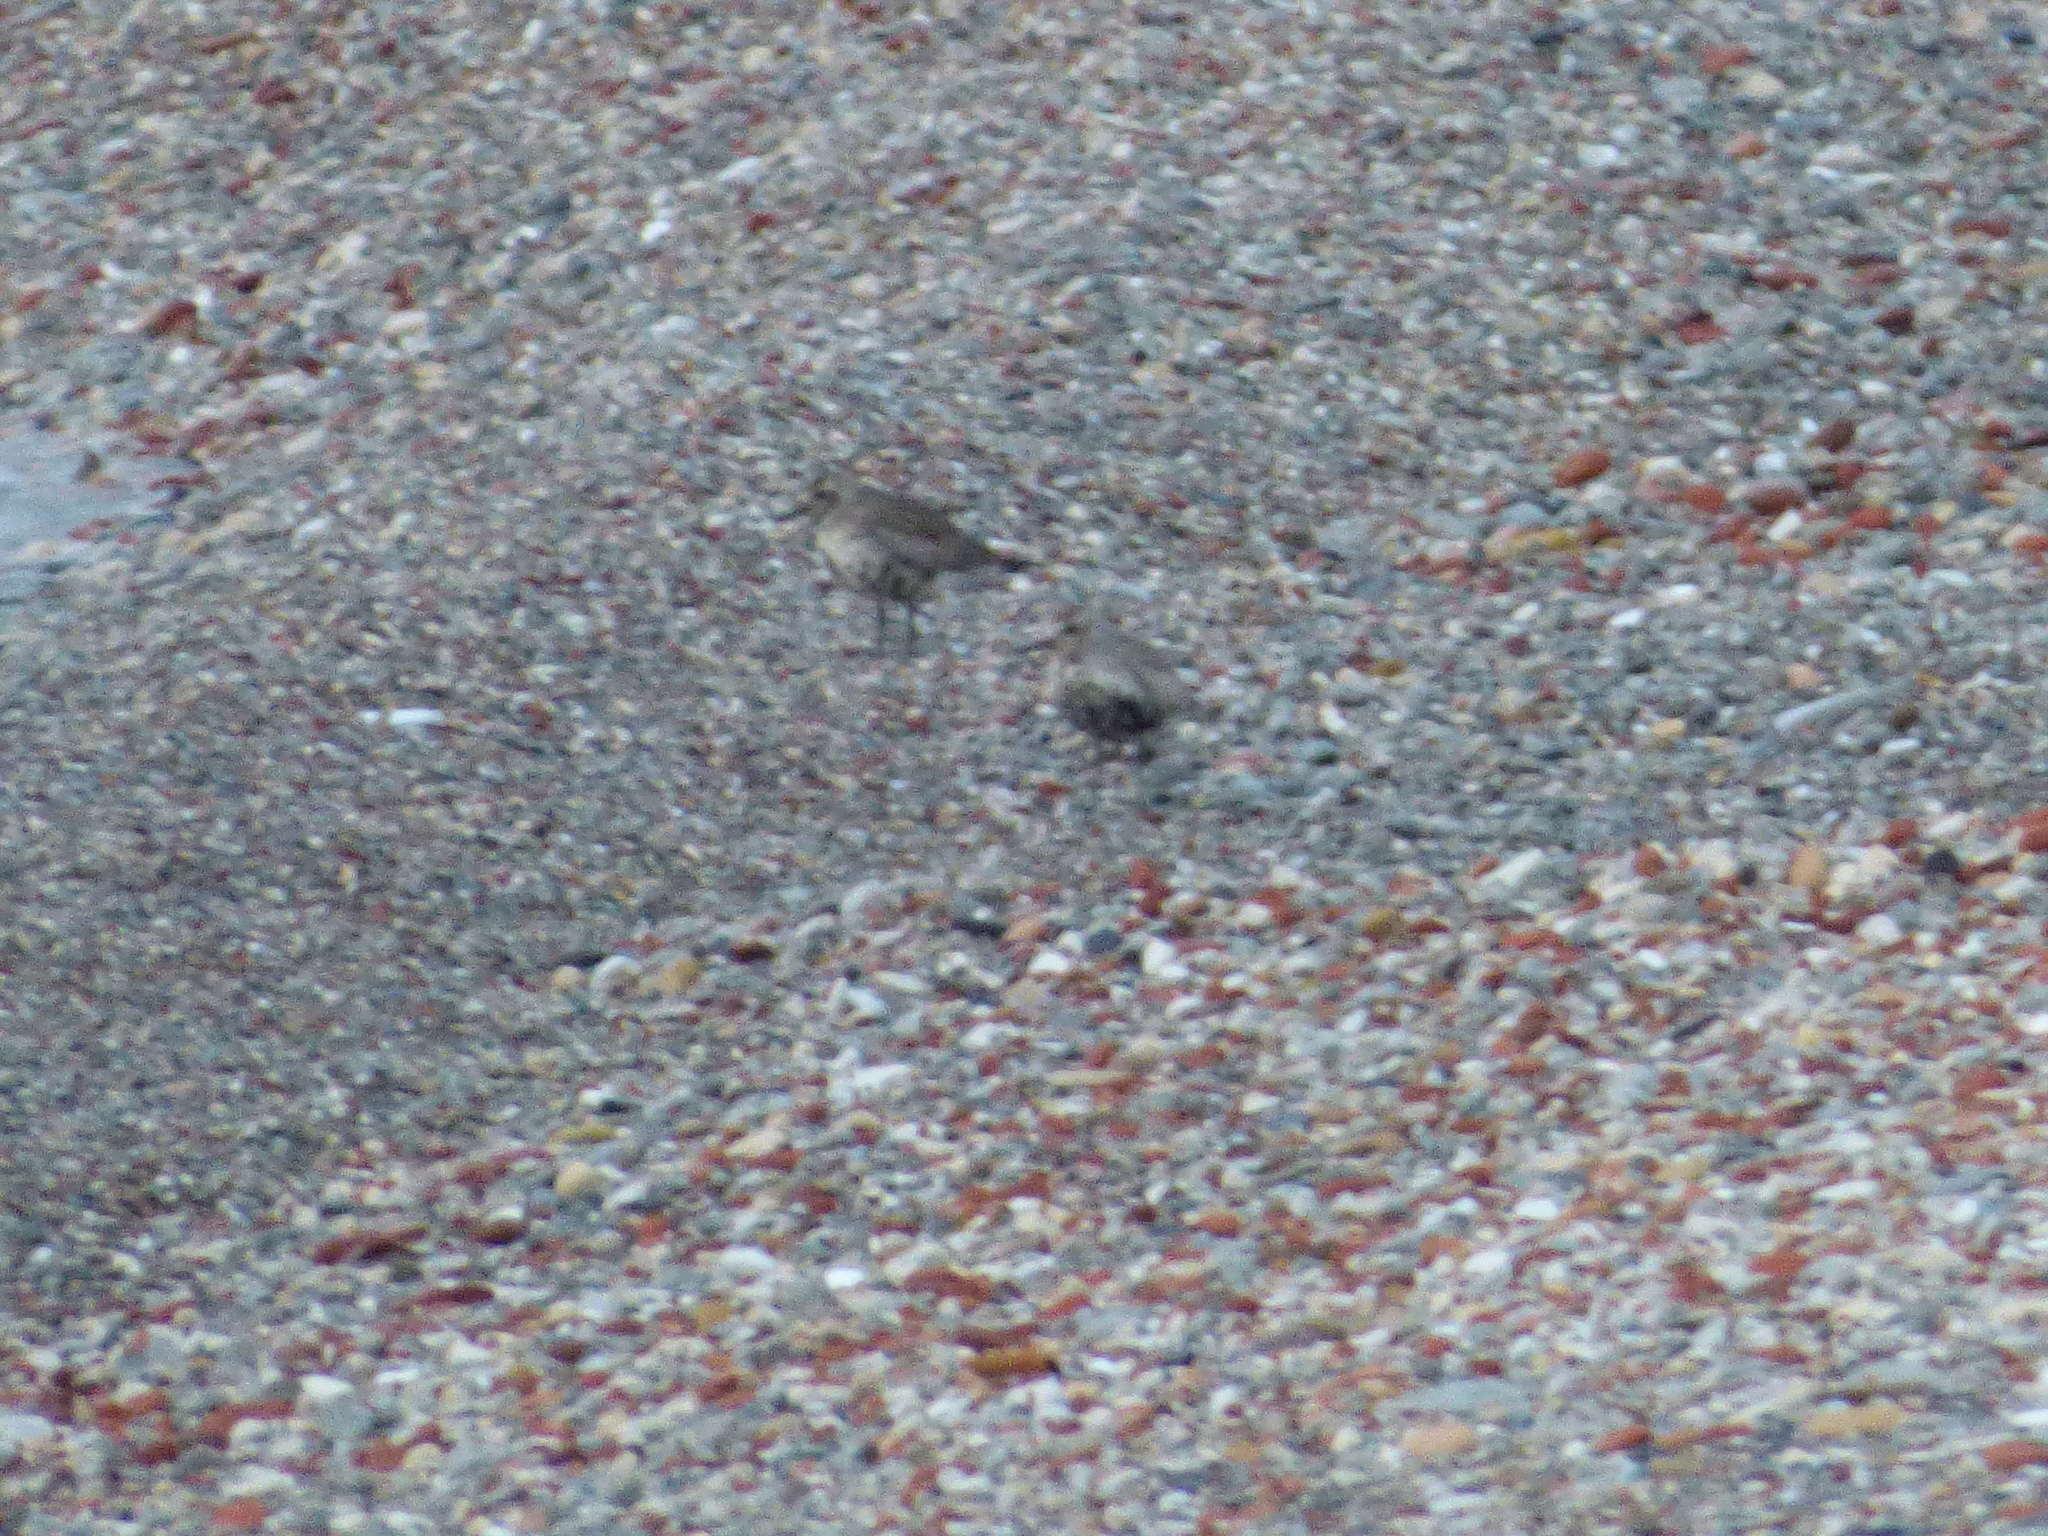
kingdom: Animalia
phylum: Chordata
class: Aves
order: Charadriiformes
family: Charadriidae
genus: Pluvialis
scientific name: Pluvialis squatarola
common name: Grey plover
